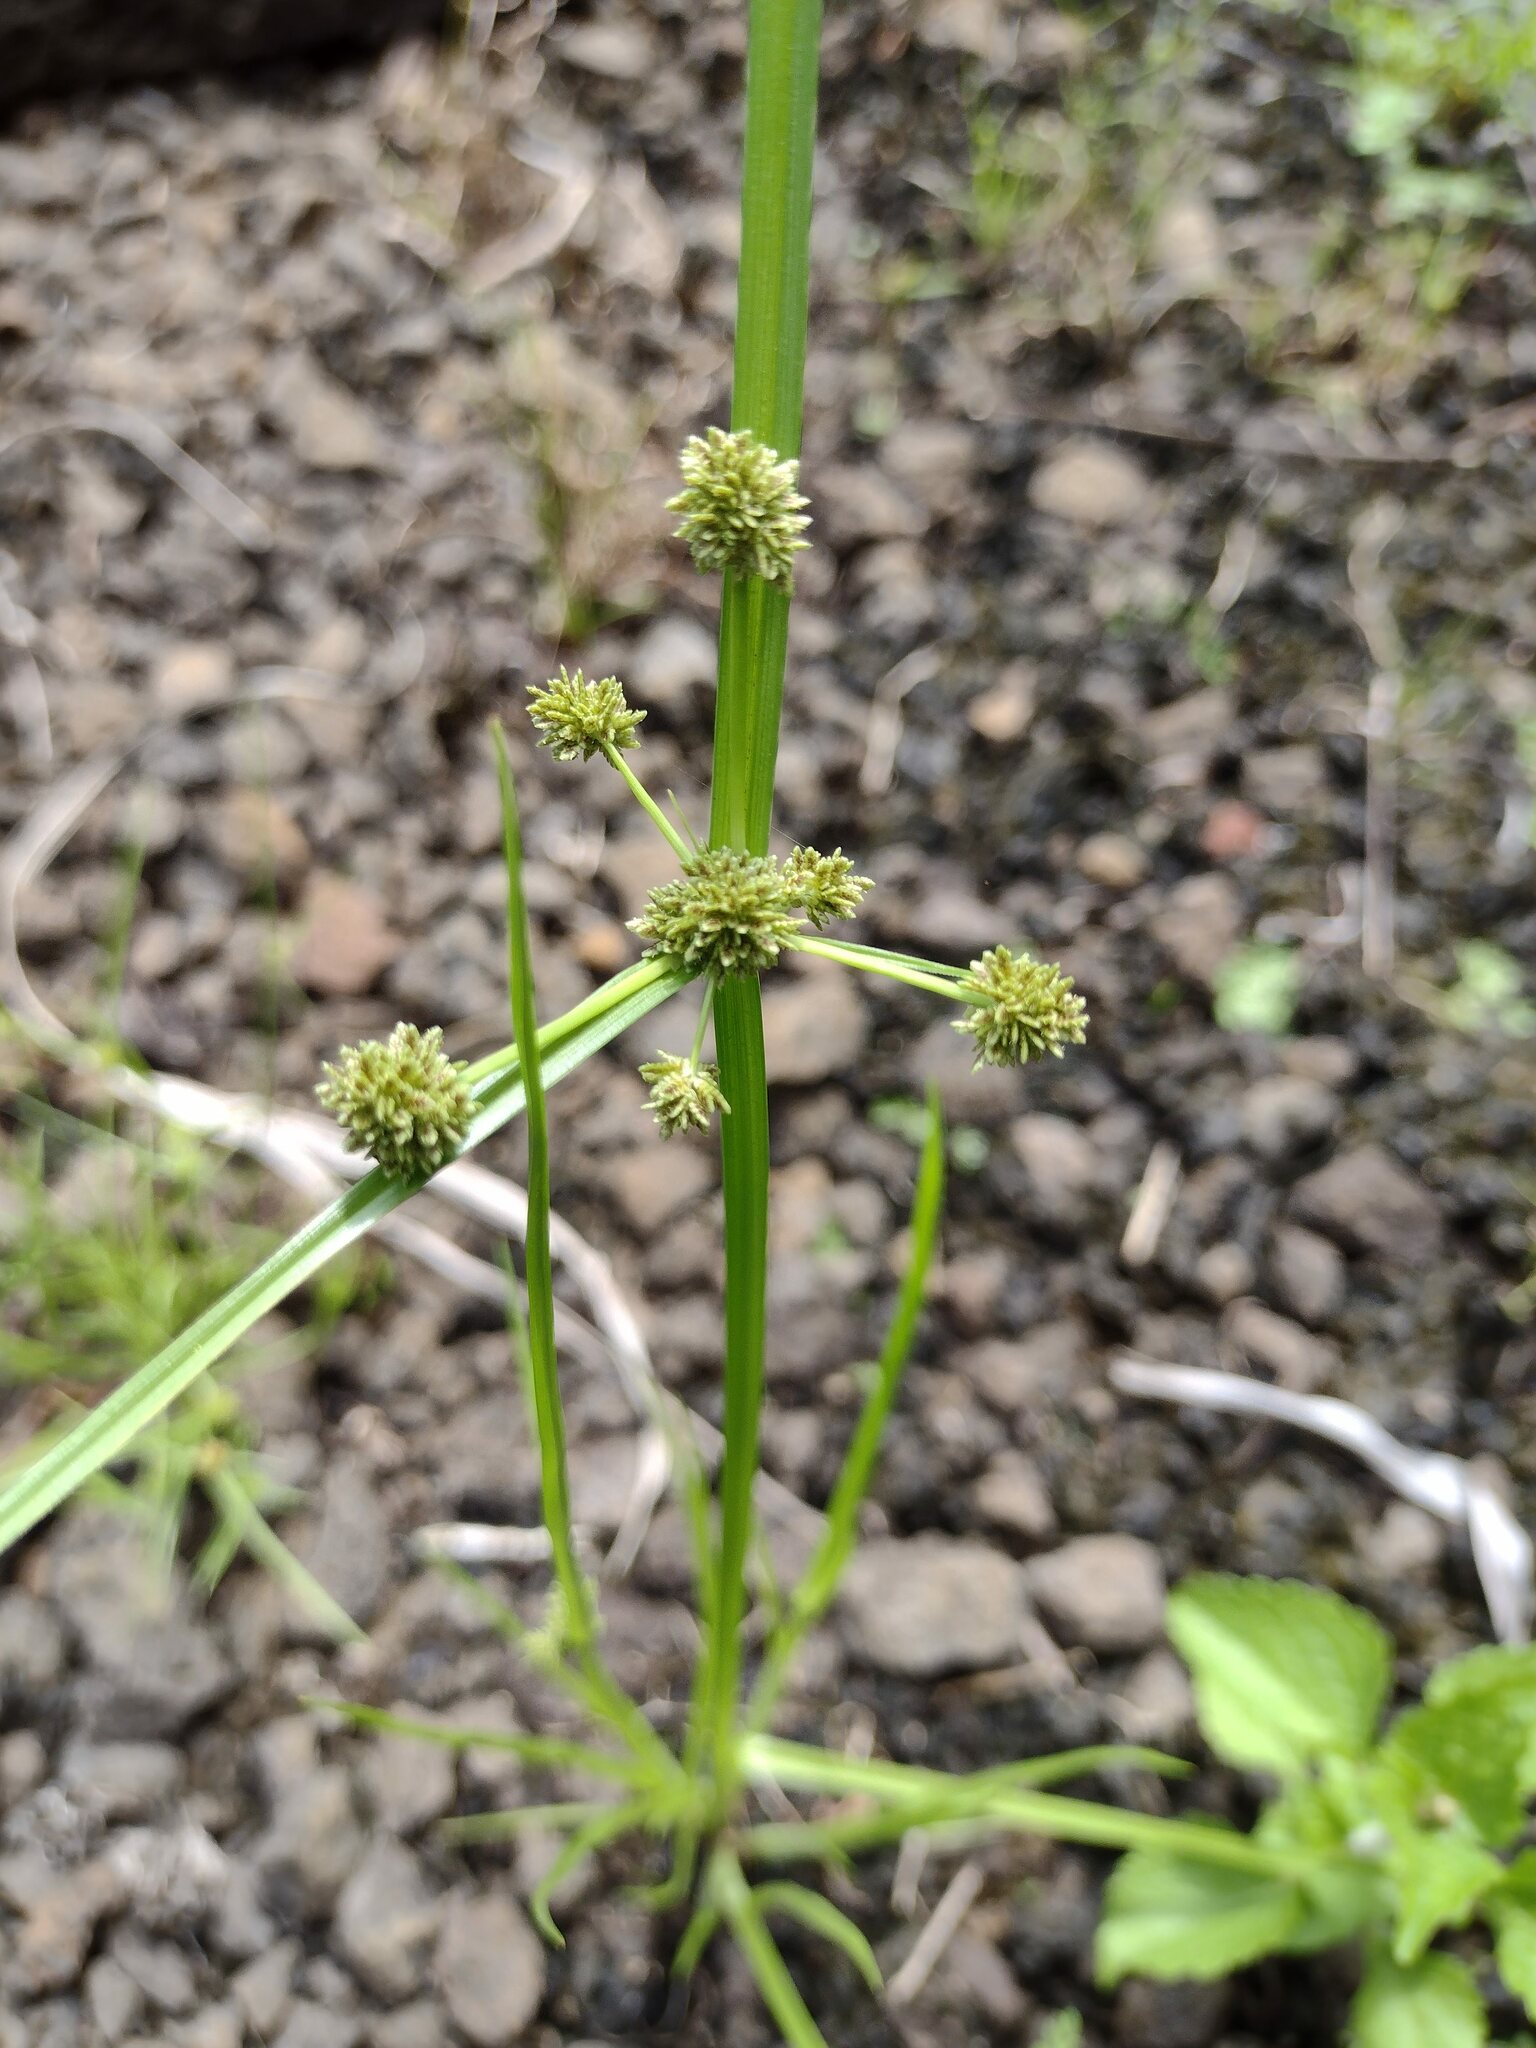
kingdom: Plantae
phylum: Tracheophyta
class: Liliopsida
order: Poales
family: Cyperaceae
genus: Cyperus
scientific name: Cyperus difformis
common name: Variable flatsedge
